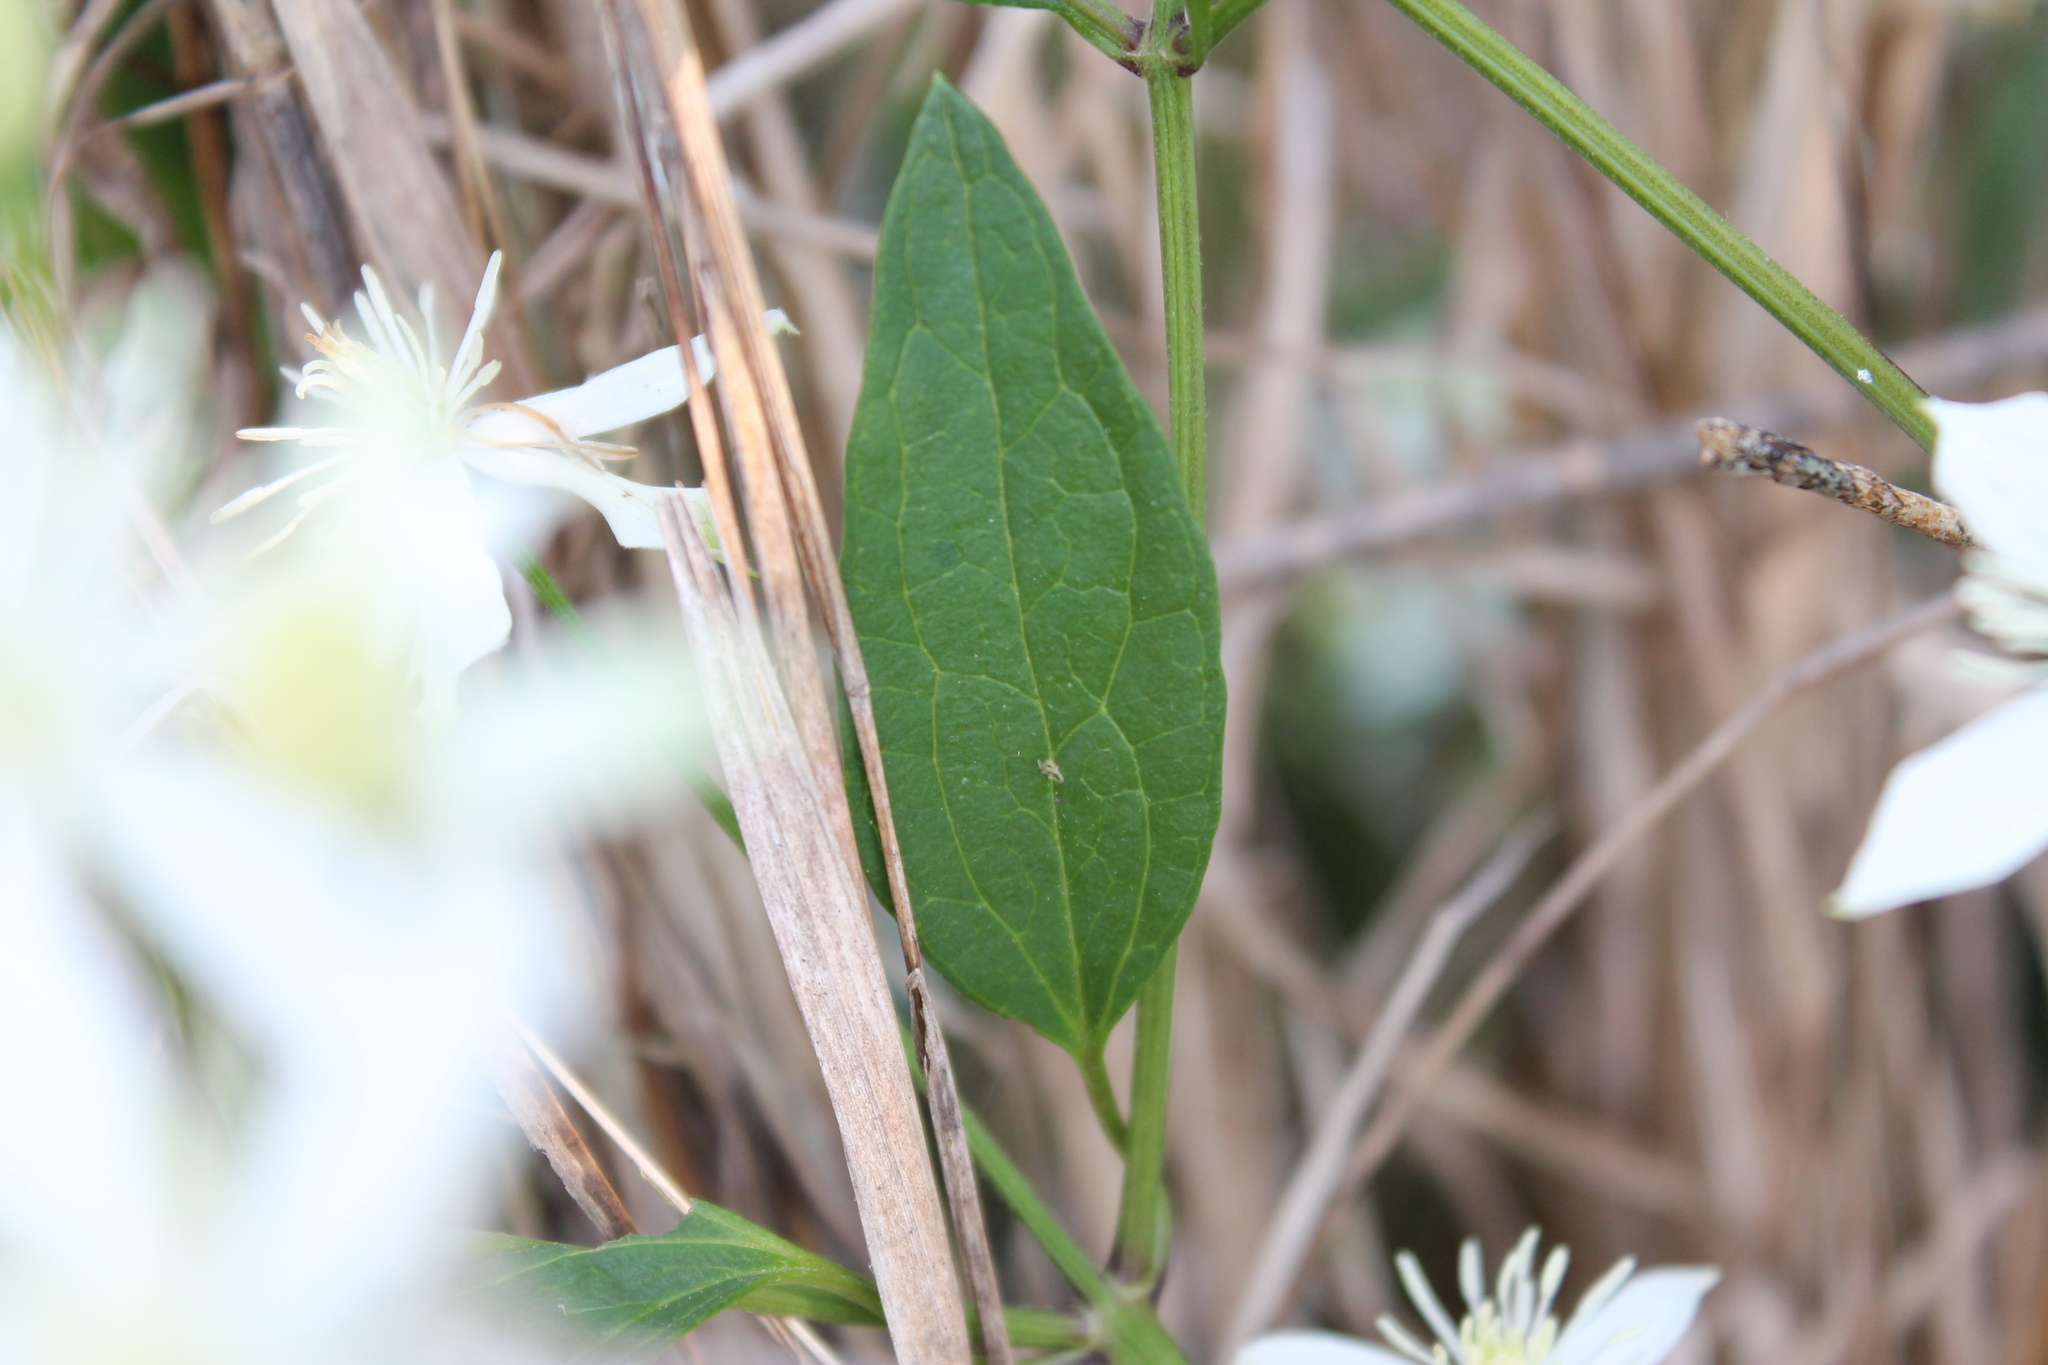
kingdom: Plantae
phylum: Tracheophyta
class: Magnoliopsida
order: Ranunculales
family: Ranunculaceae
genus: Clematis
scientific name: Clematis terniflora
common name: Sweet autumn clematis
